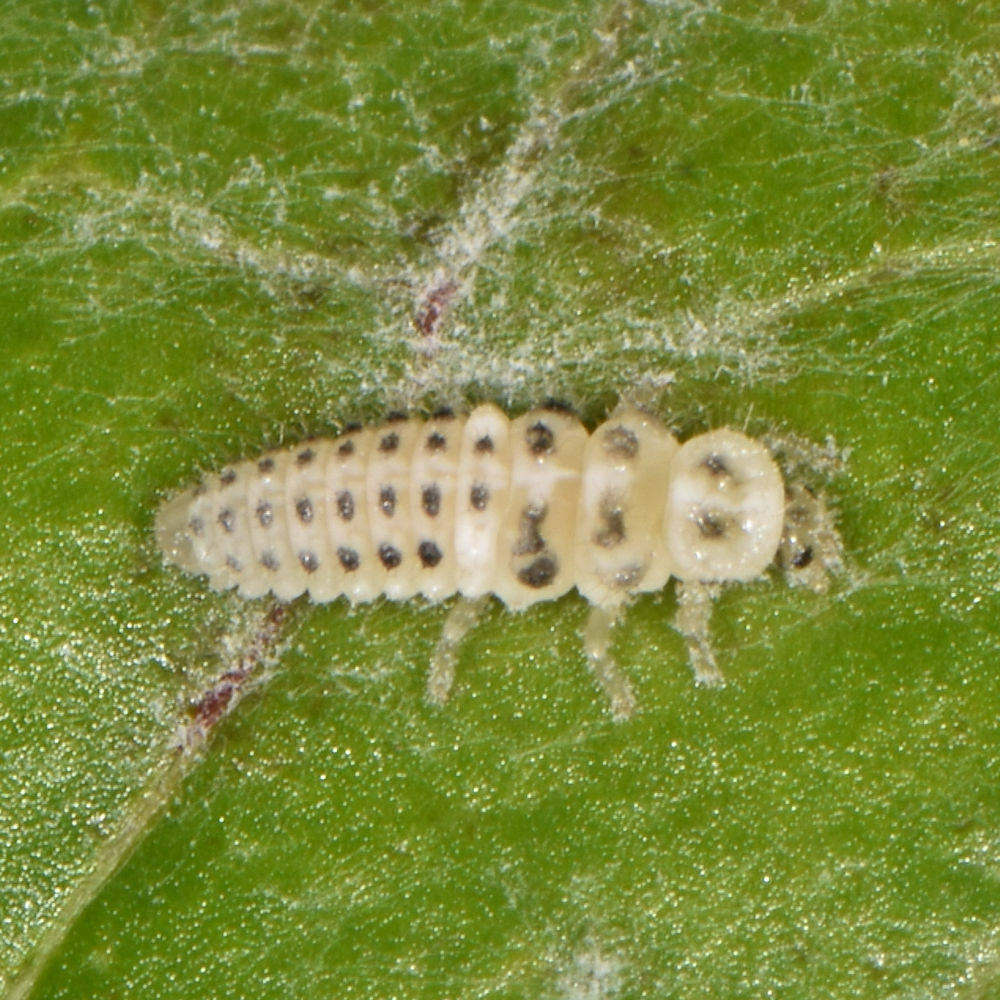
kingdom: Animalia
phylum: Arthropoda
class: Insecta
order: Coleoptera
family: Coccinellidae
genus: Psyllobora
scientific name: Psyllobora vigintimaculata
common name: Ladybird beetle
